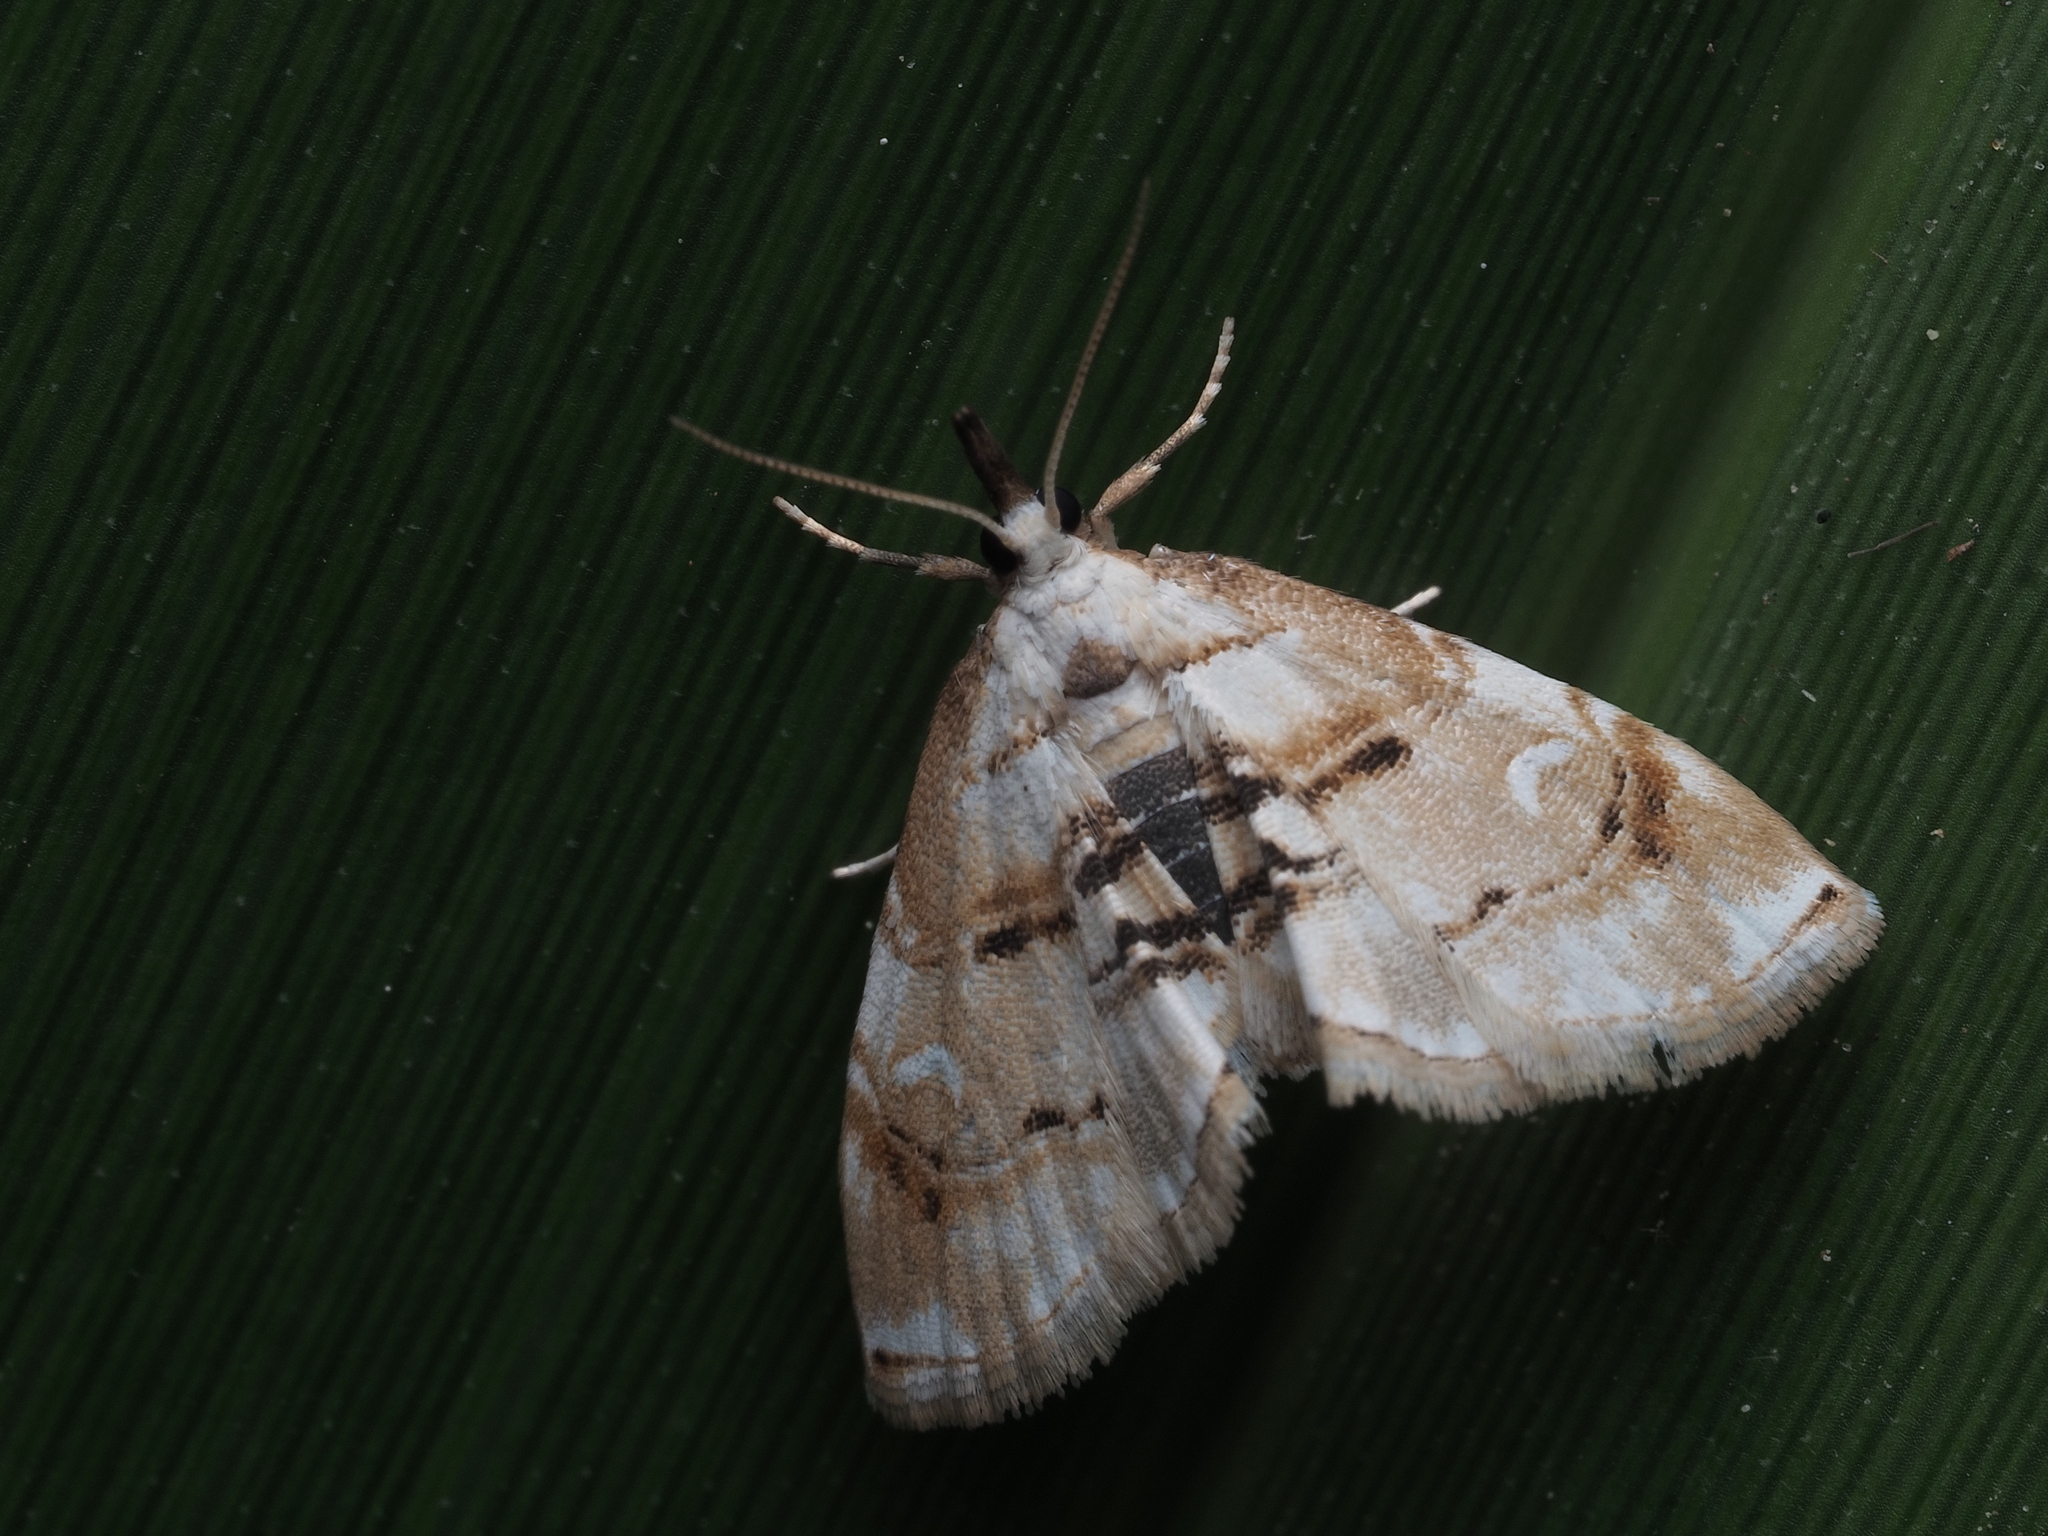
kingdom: Animalia
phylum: Arthropoda
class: Insecta
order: Lepidoptera
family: Crambidae
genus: Trichophysetis
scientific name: Trichophysetis
